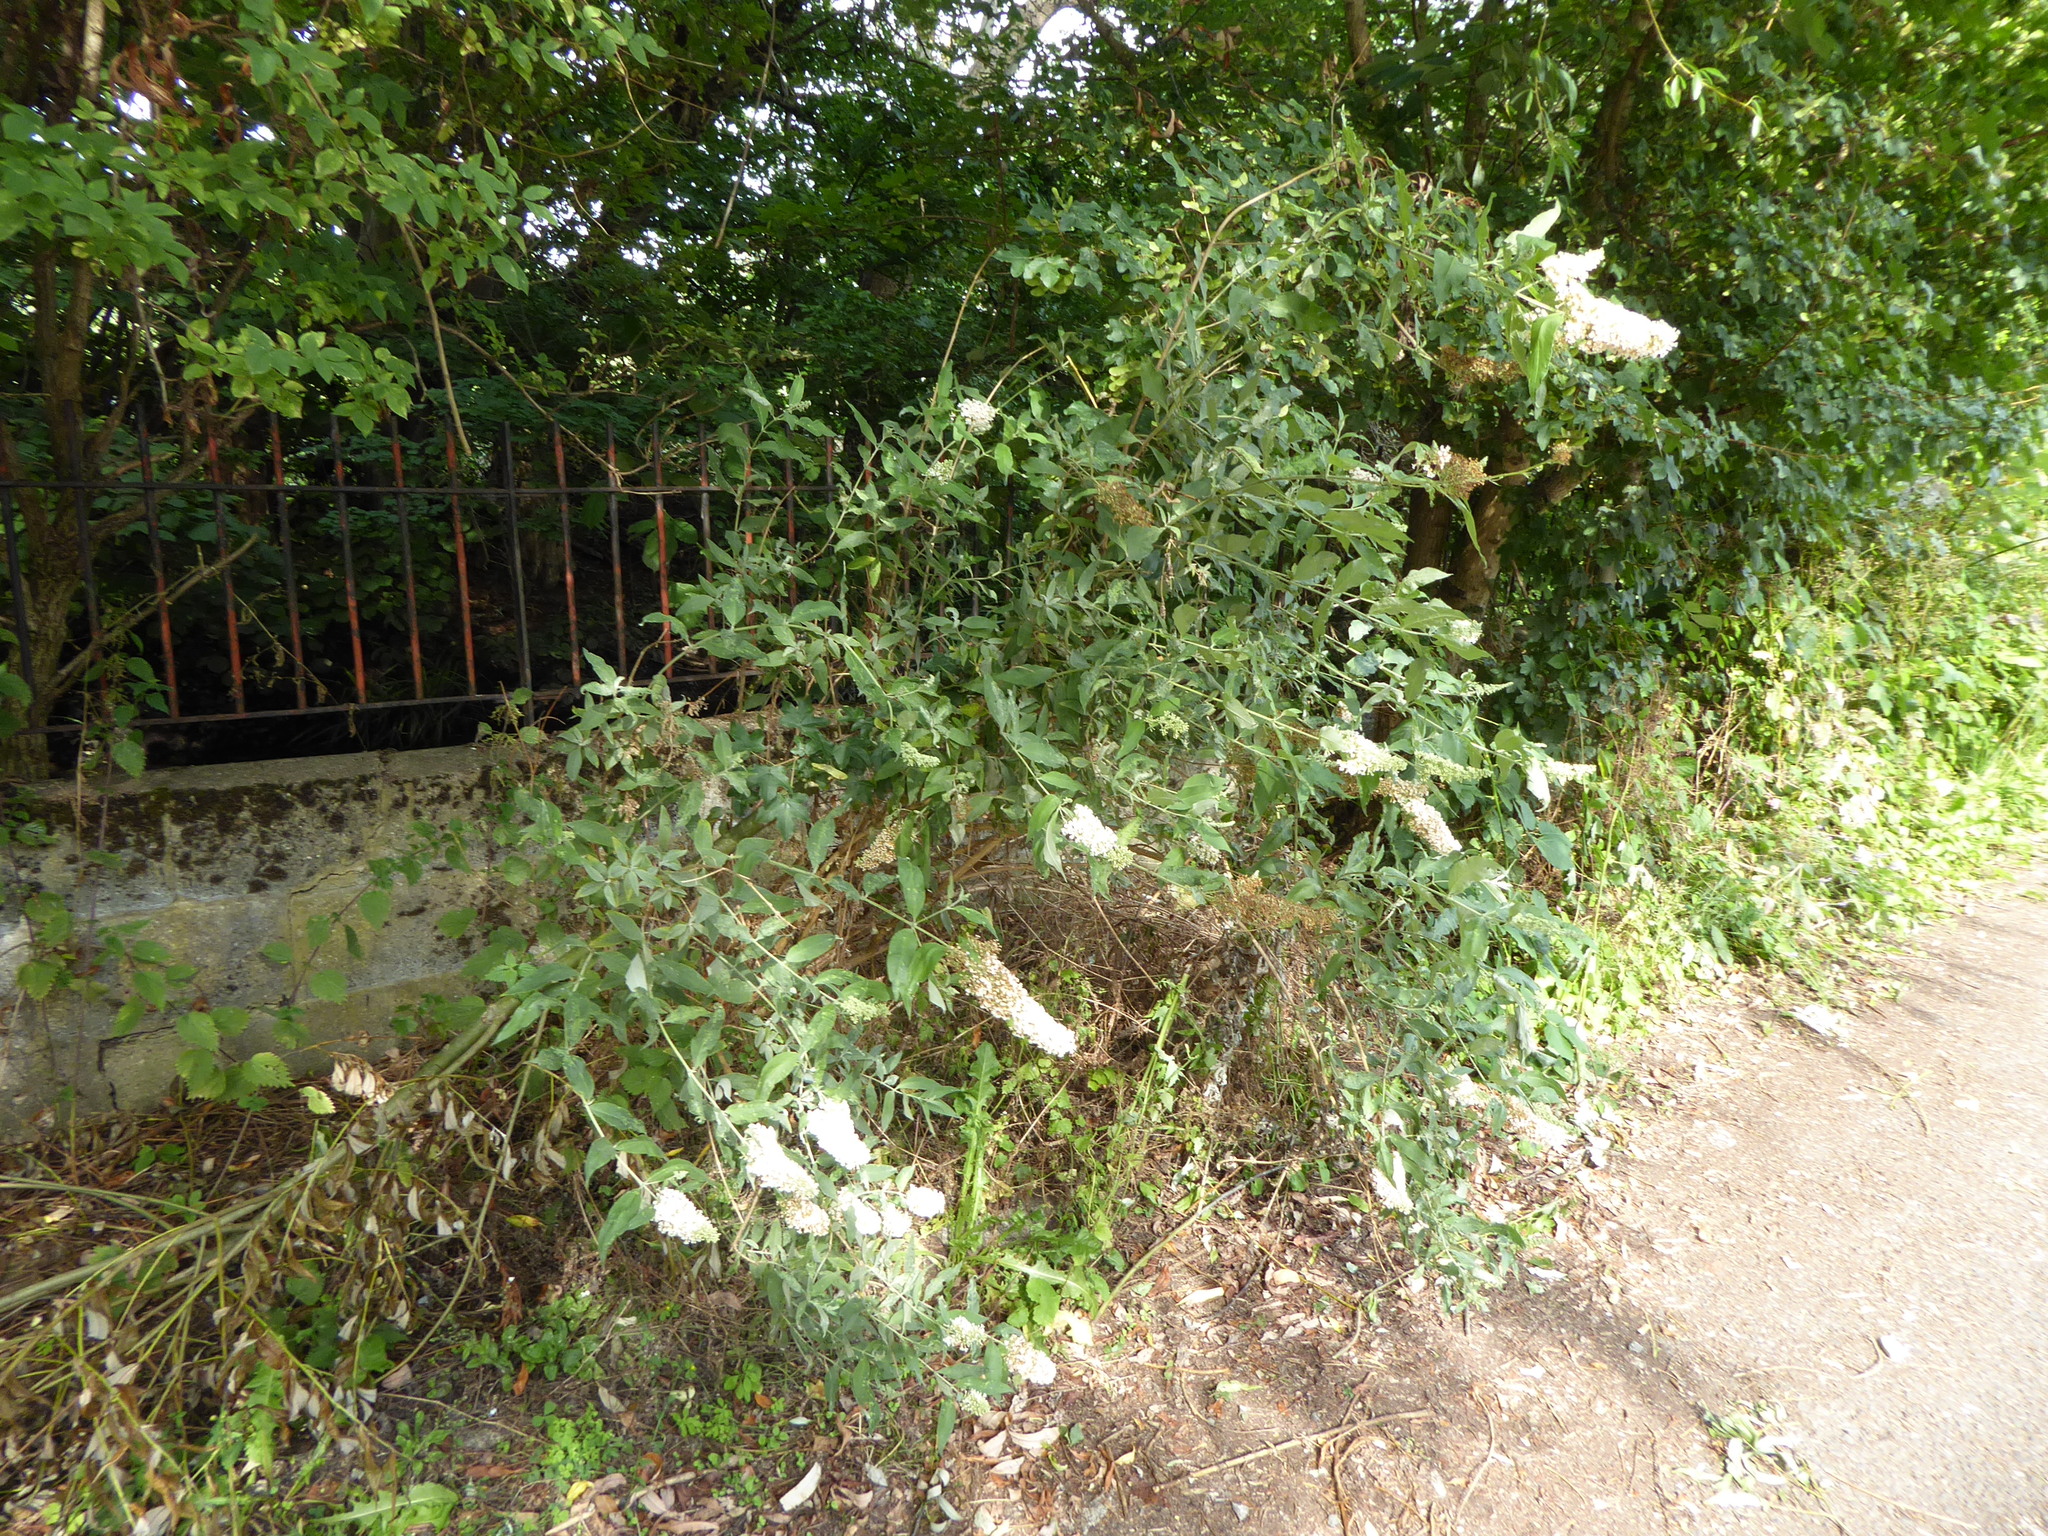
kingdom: Plantae
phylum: Tracheophyta
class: Magnoliopsida
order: Lamiales
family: Scrophulariaceae
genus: Buddleja
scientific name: Buddleja davidii
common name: Butterfly-bush
